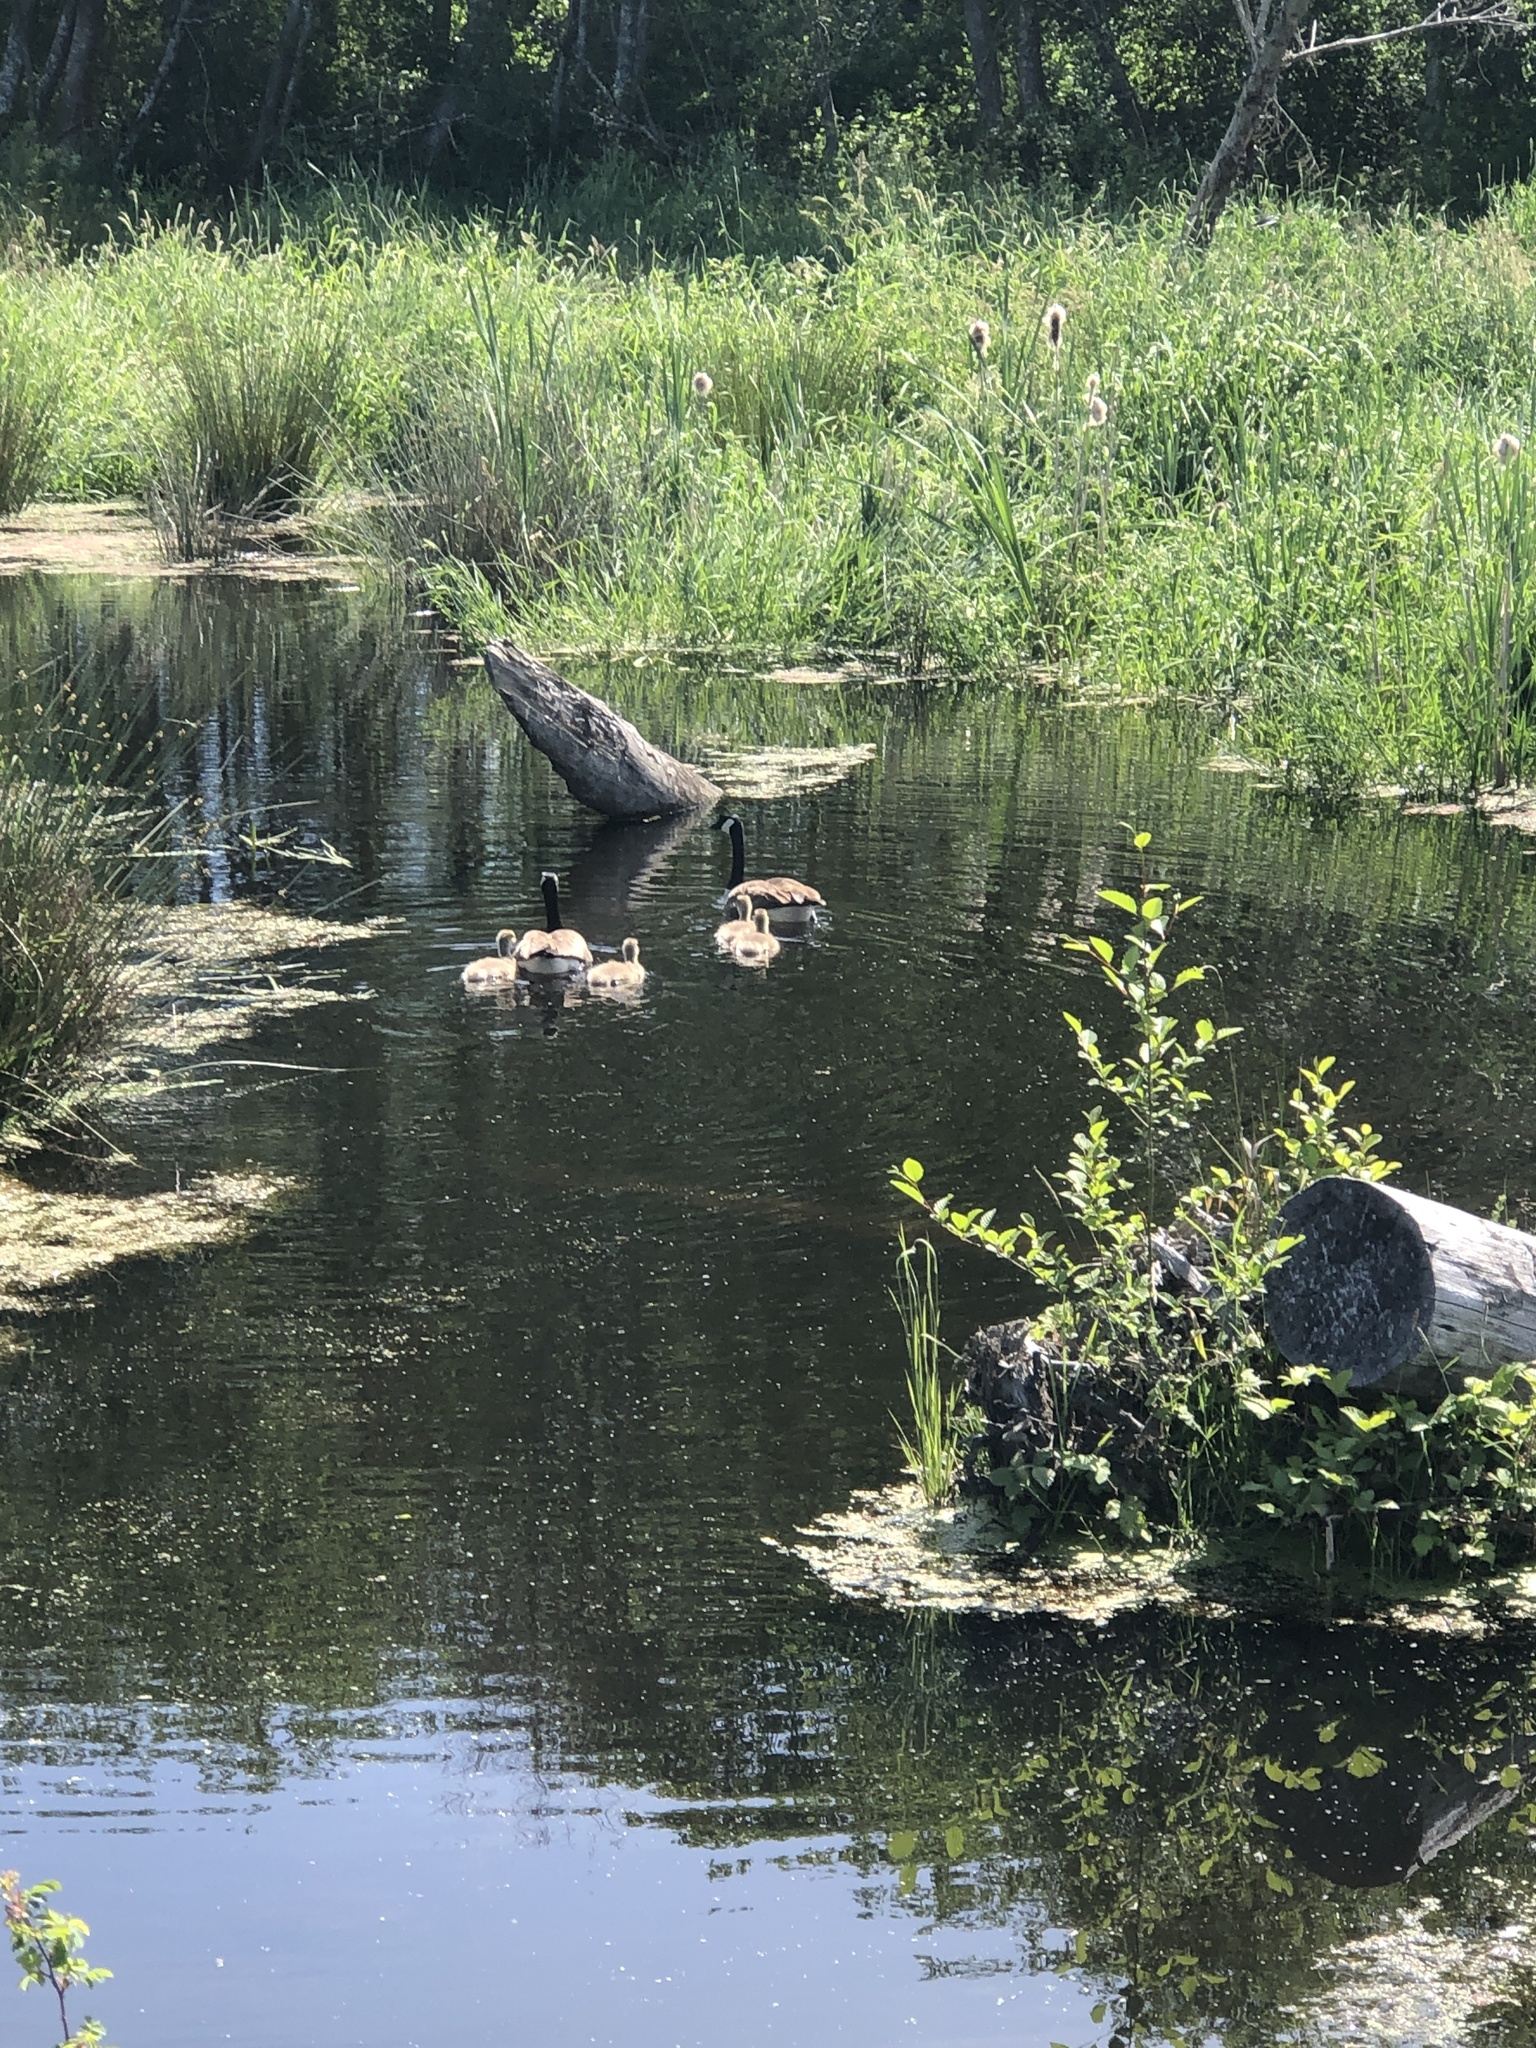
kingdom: Animalia
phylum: Chordata
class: Aves
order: Anseriformes
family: Anatidae
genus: Branta
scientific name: Branta canadensis
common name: Canada goose
